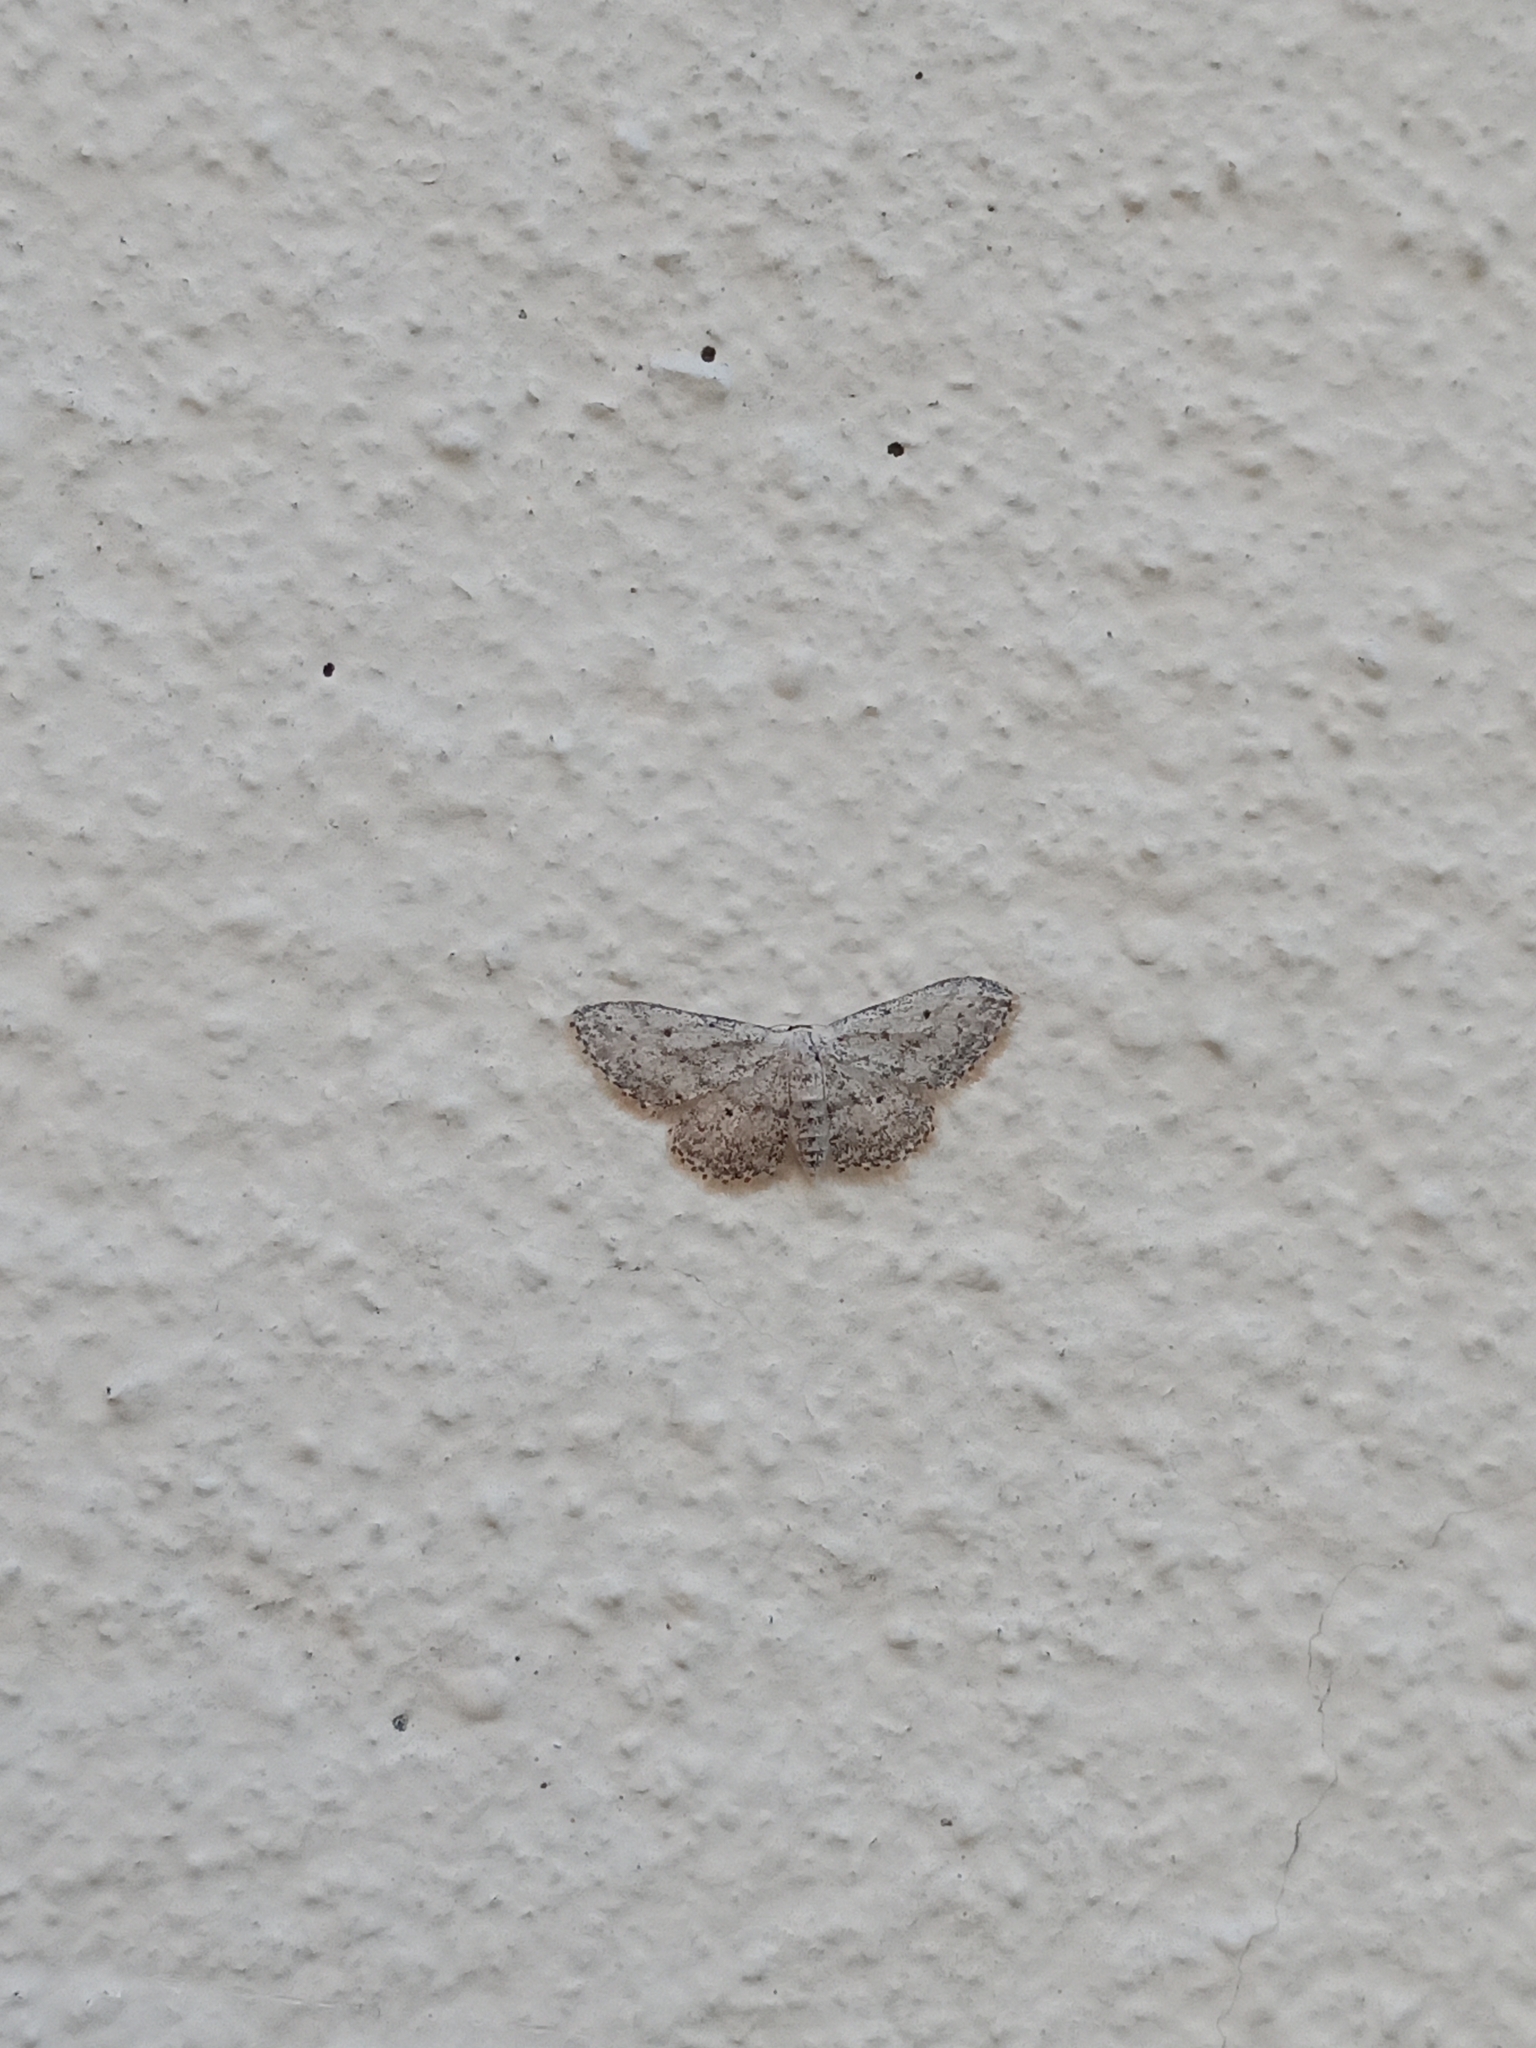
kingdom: Animalia
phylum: Arthropoda
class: Insecta
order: Lepidoptera
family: Geometridae
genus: Idaea
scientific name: Idaea seriata
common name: Small dusty wave
